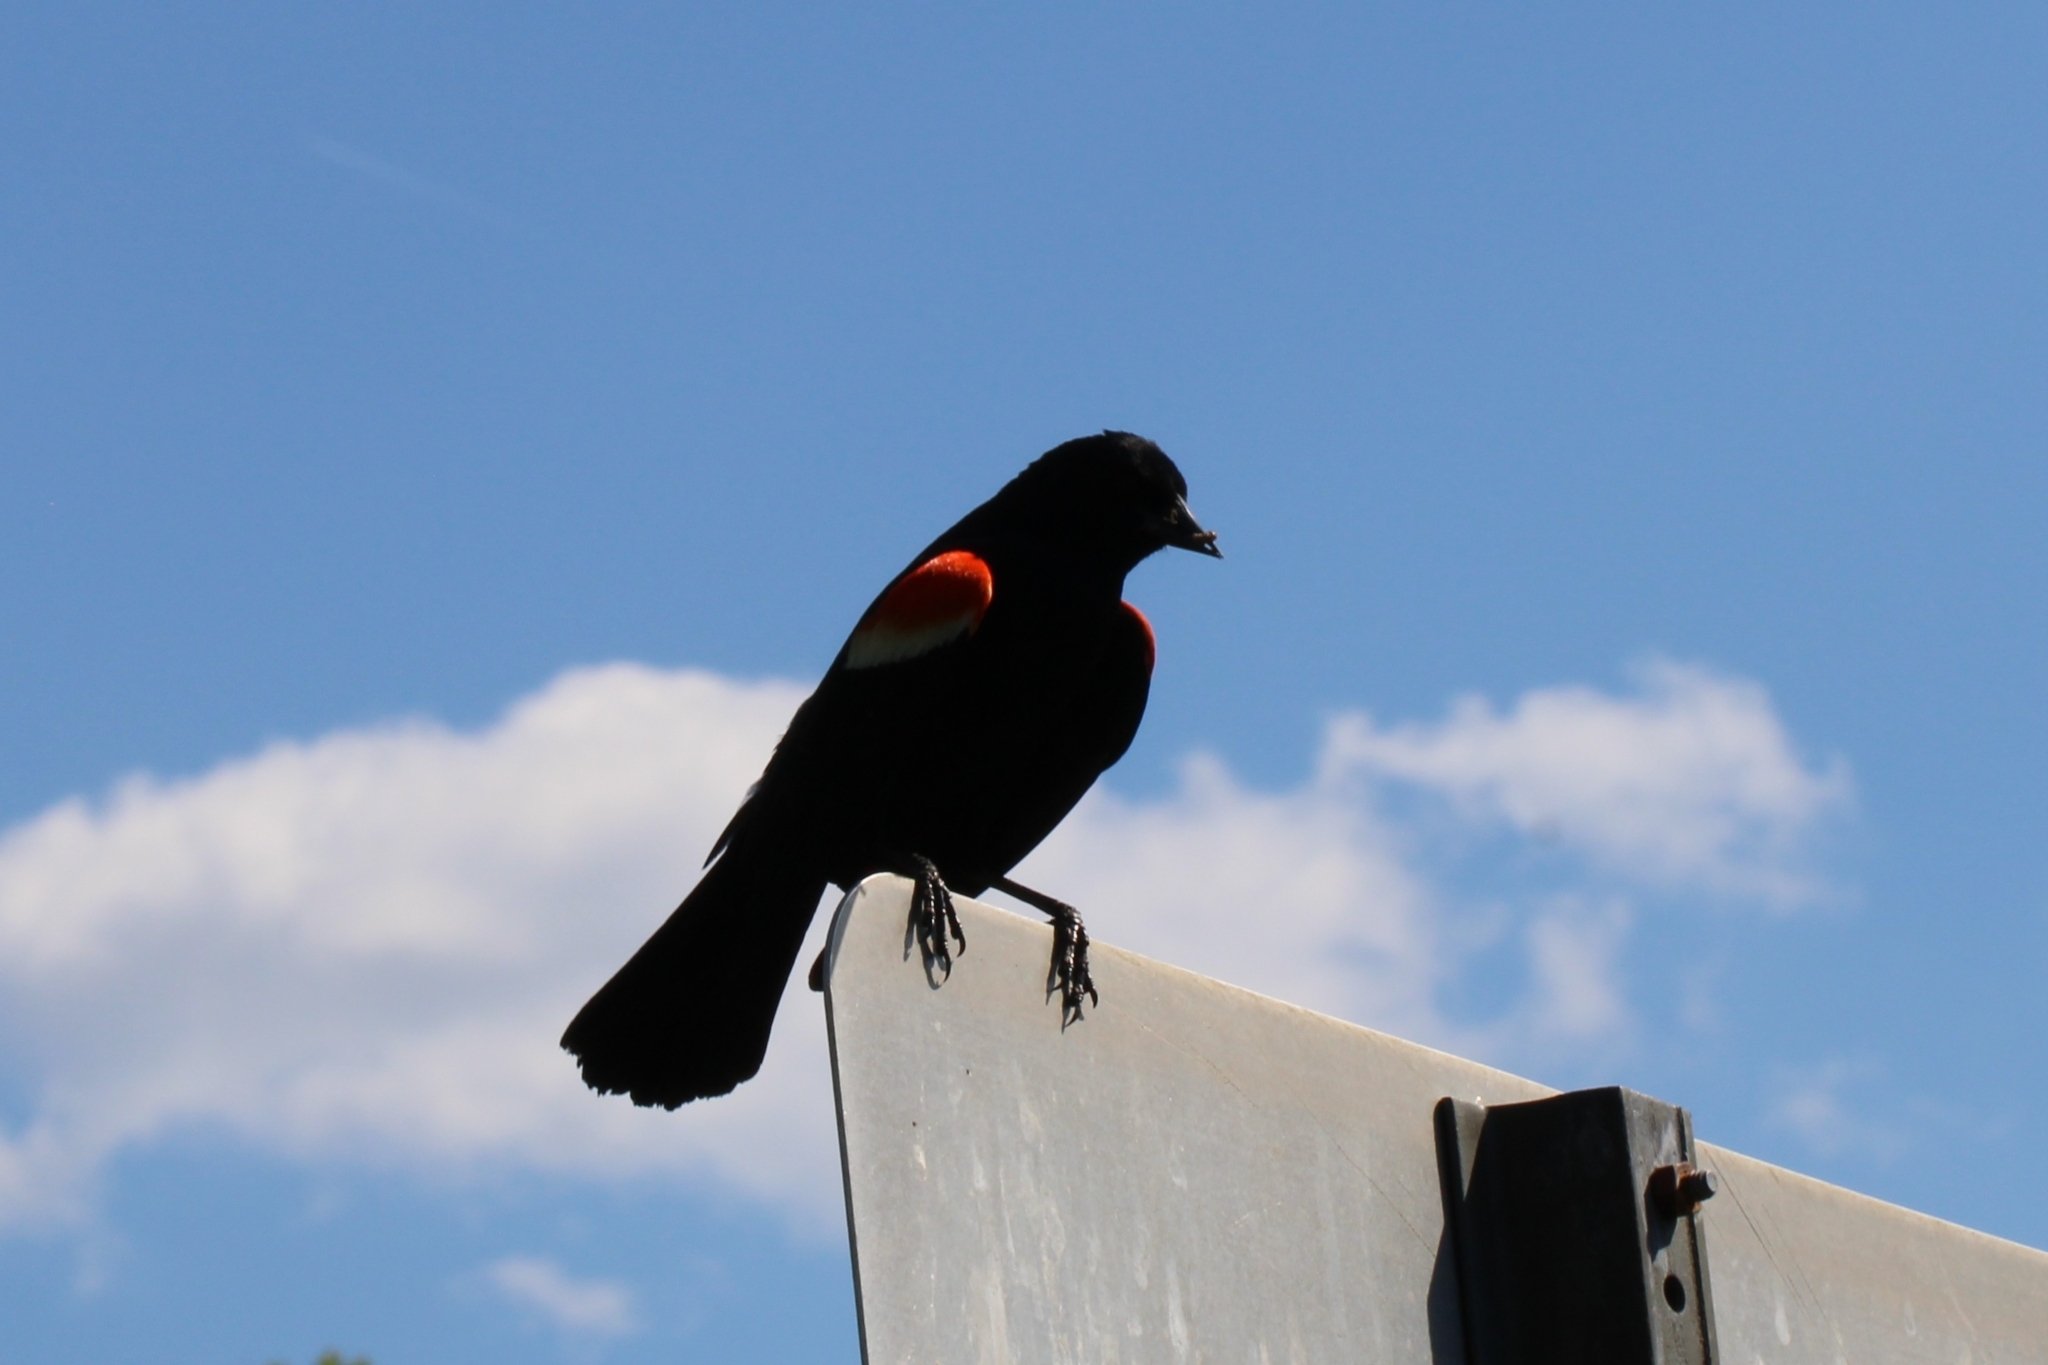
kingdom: Animalia
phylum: Chordata
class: Aves
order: Passeriformes
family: Icteridae
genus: Agelaius
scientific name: Agelaius phoeniceus
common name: Red-winged blackbird
